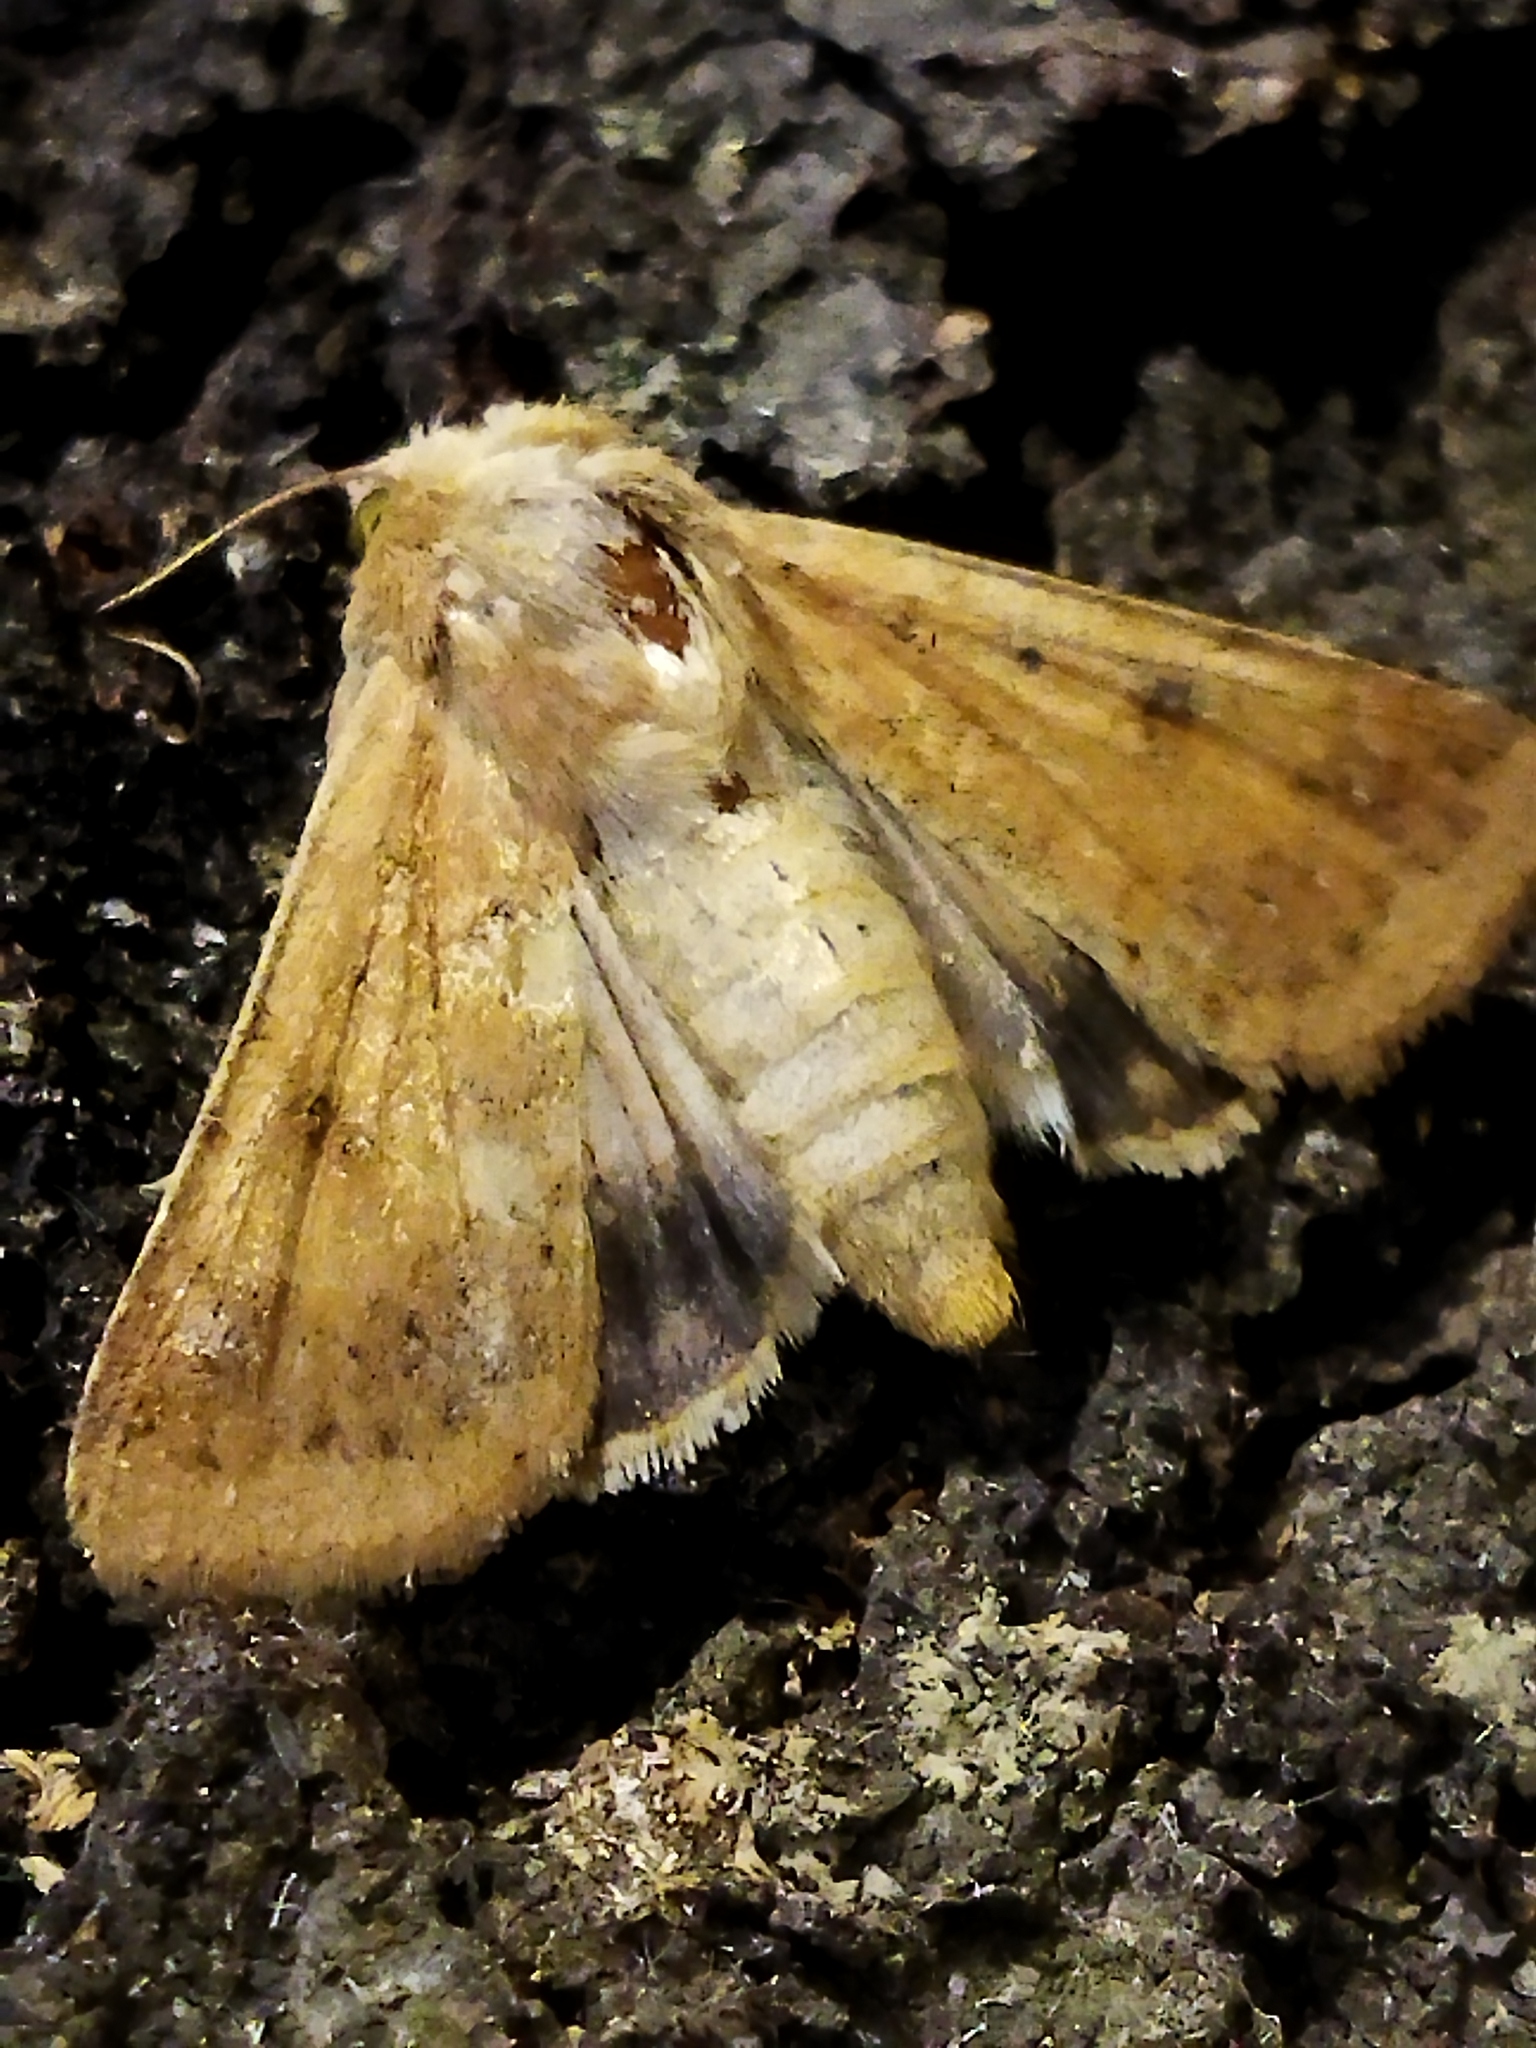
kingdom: Animalia
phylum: Arthropoda
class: Insecta
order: Lepidoptera
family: Noctuidae
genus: Helicoverpa
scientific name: Helicoverpa armigera
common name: Cotton bollworm
